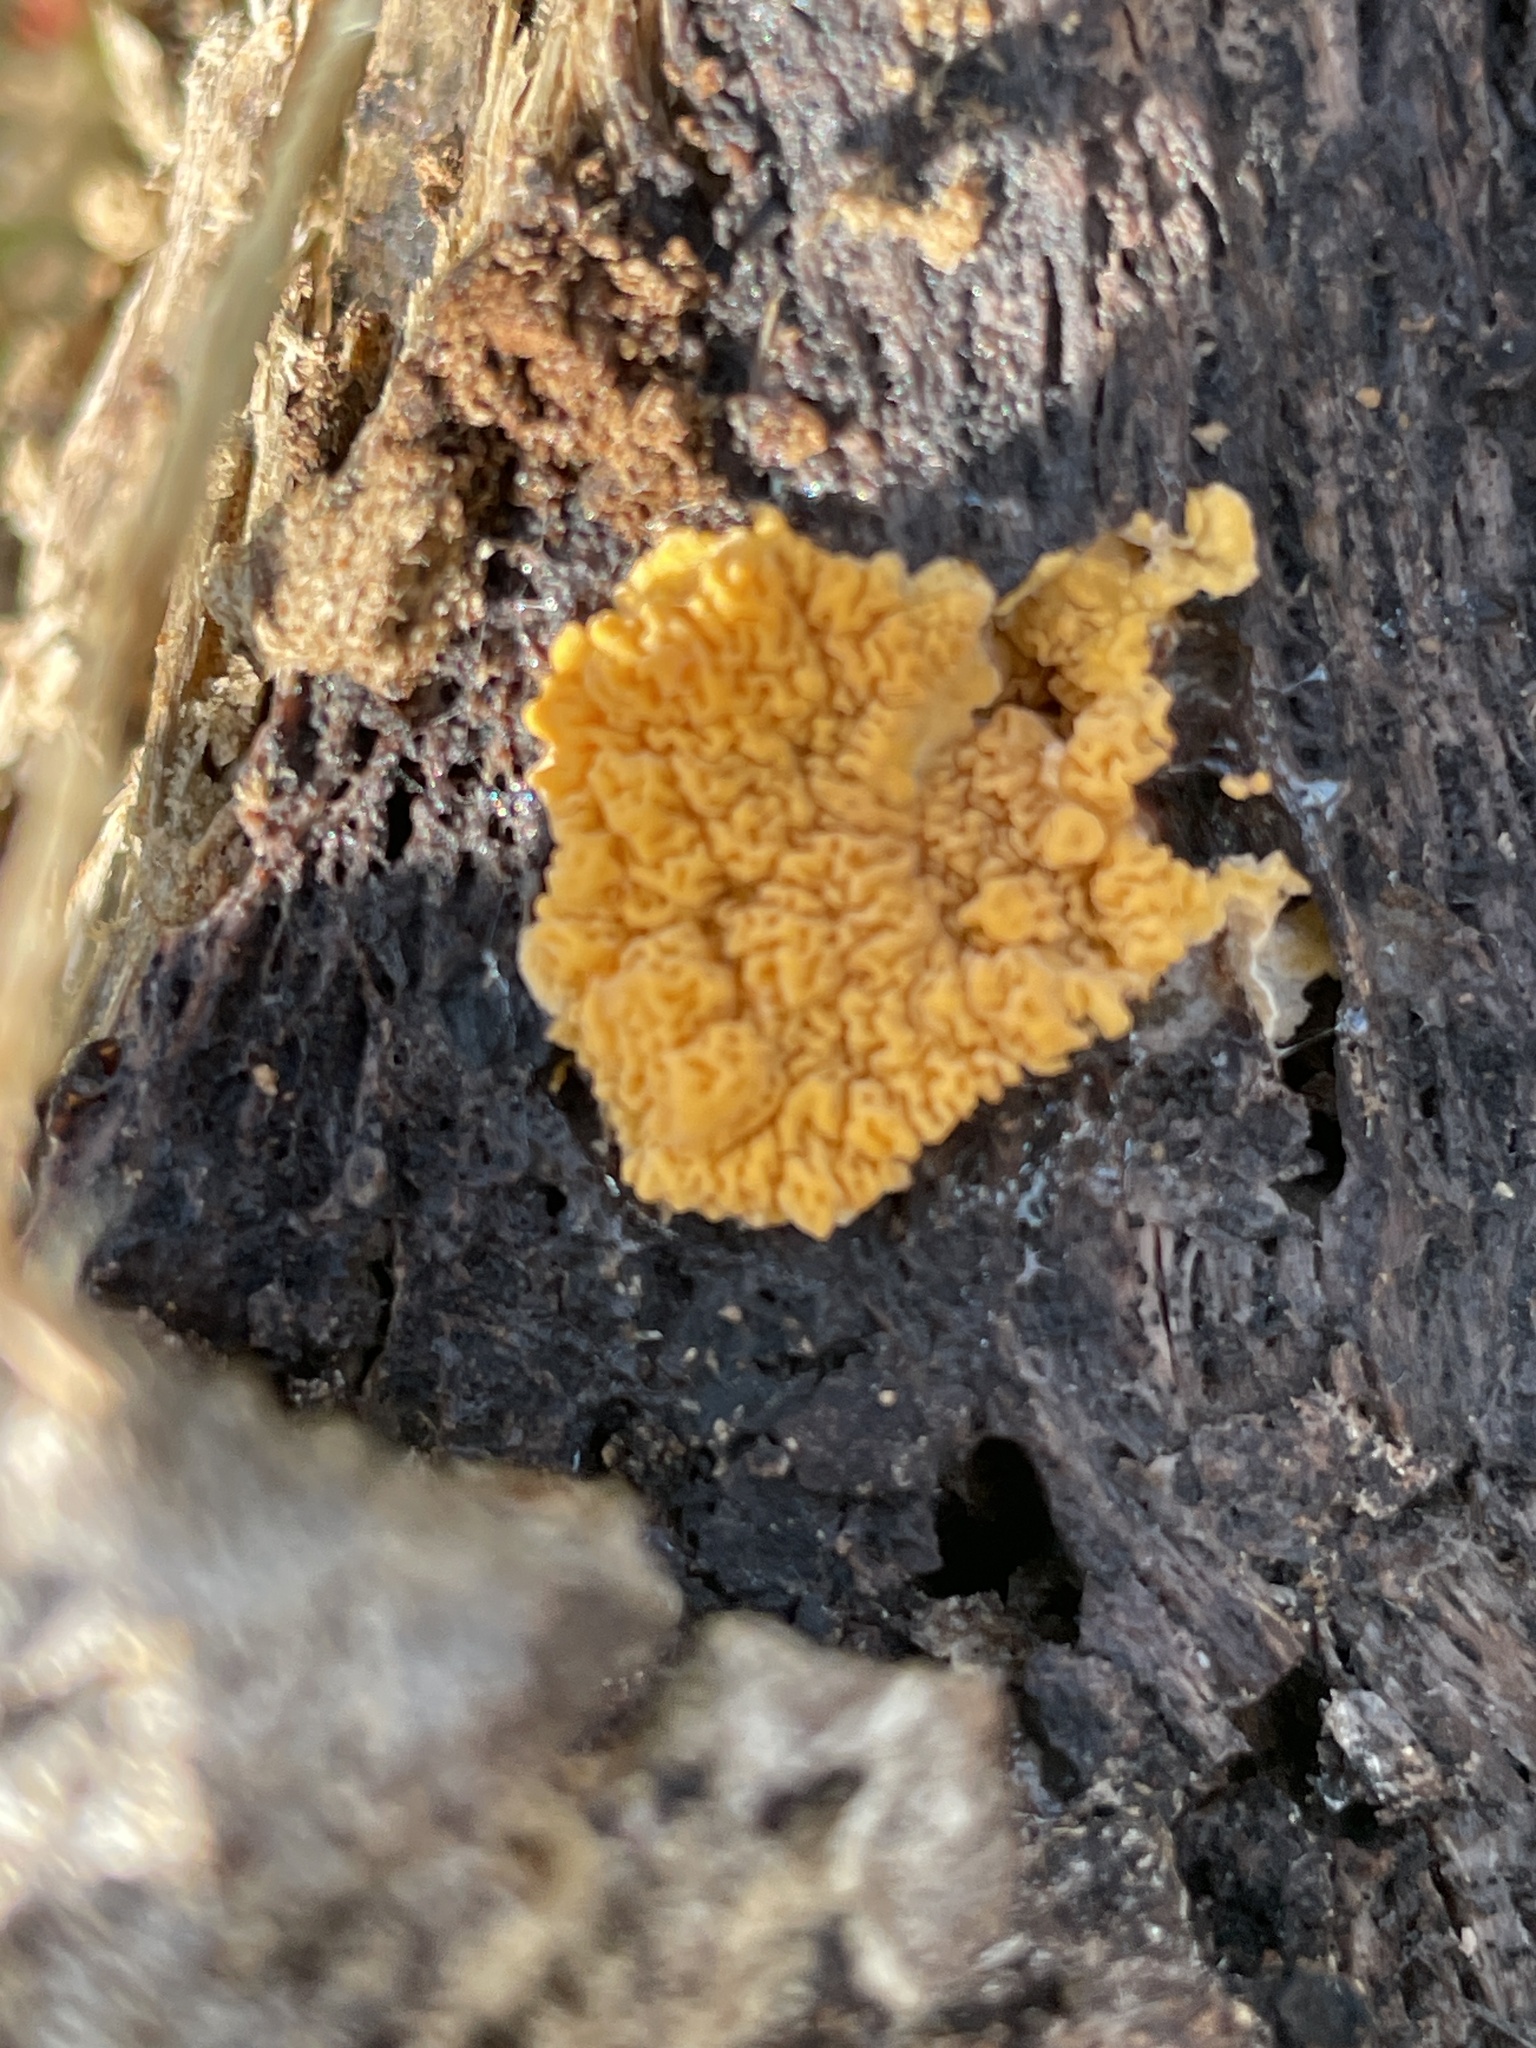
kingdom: Fungi
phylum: Basidiomycota
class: Agaricomycetes
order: Boletales
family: Serpulaceae
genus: Serpula
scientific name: Serpula himantioides
